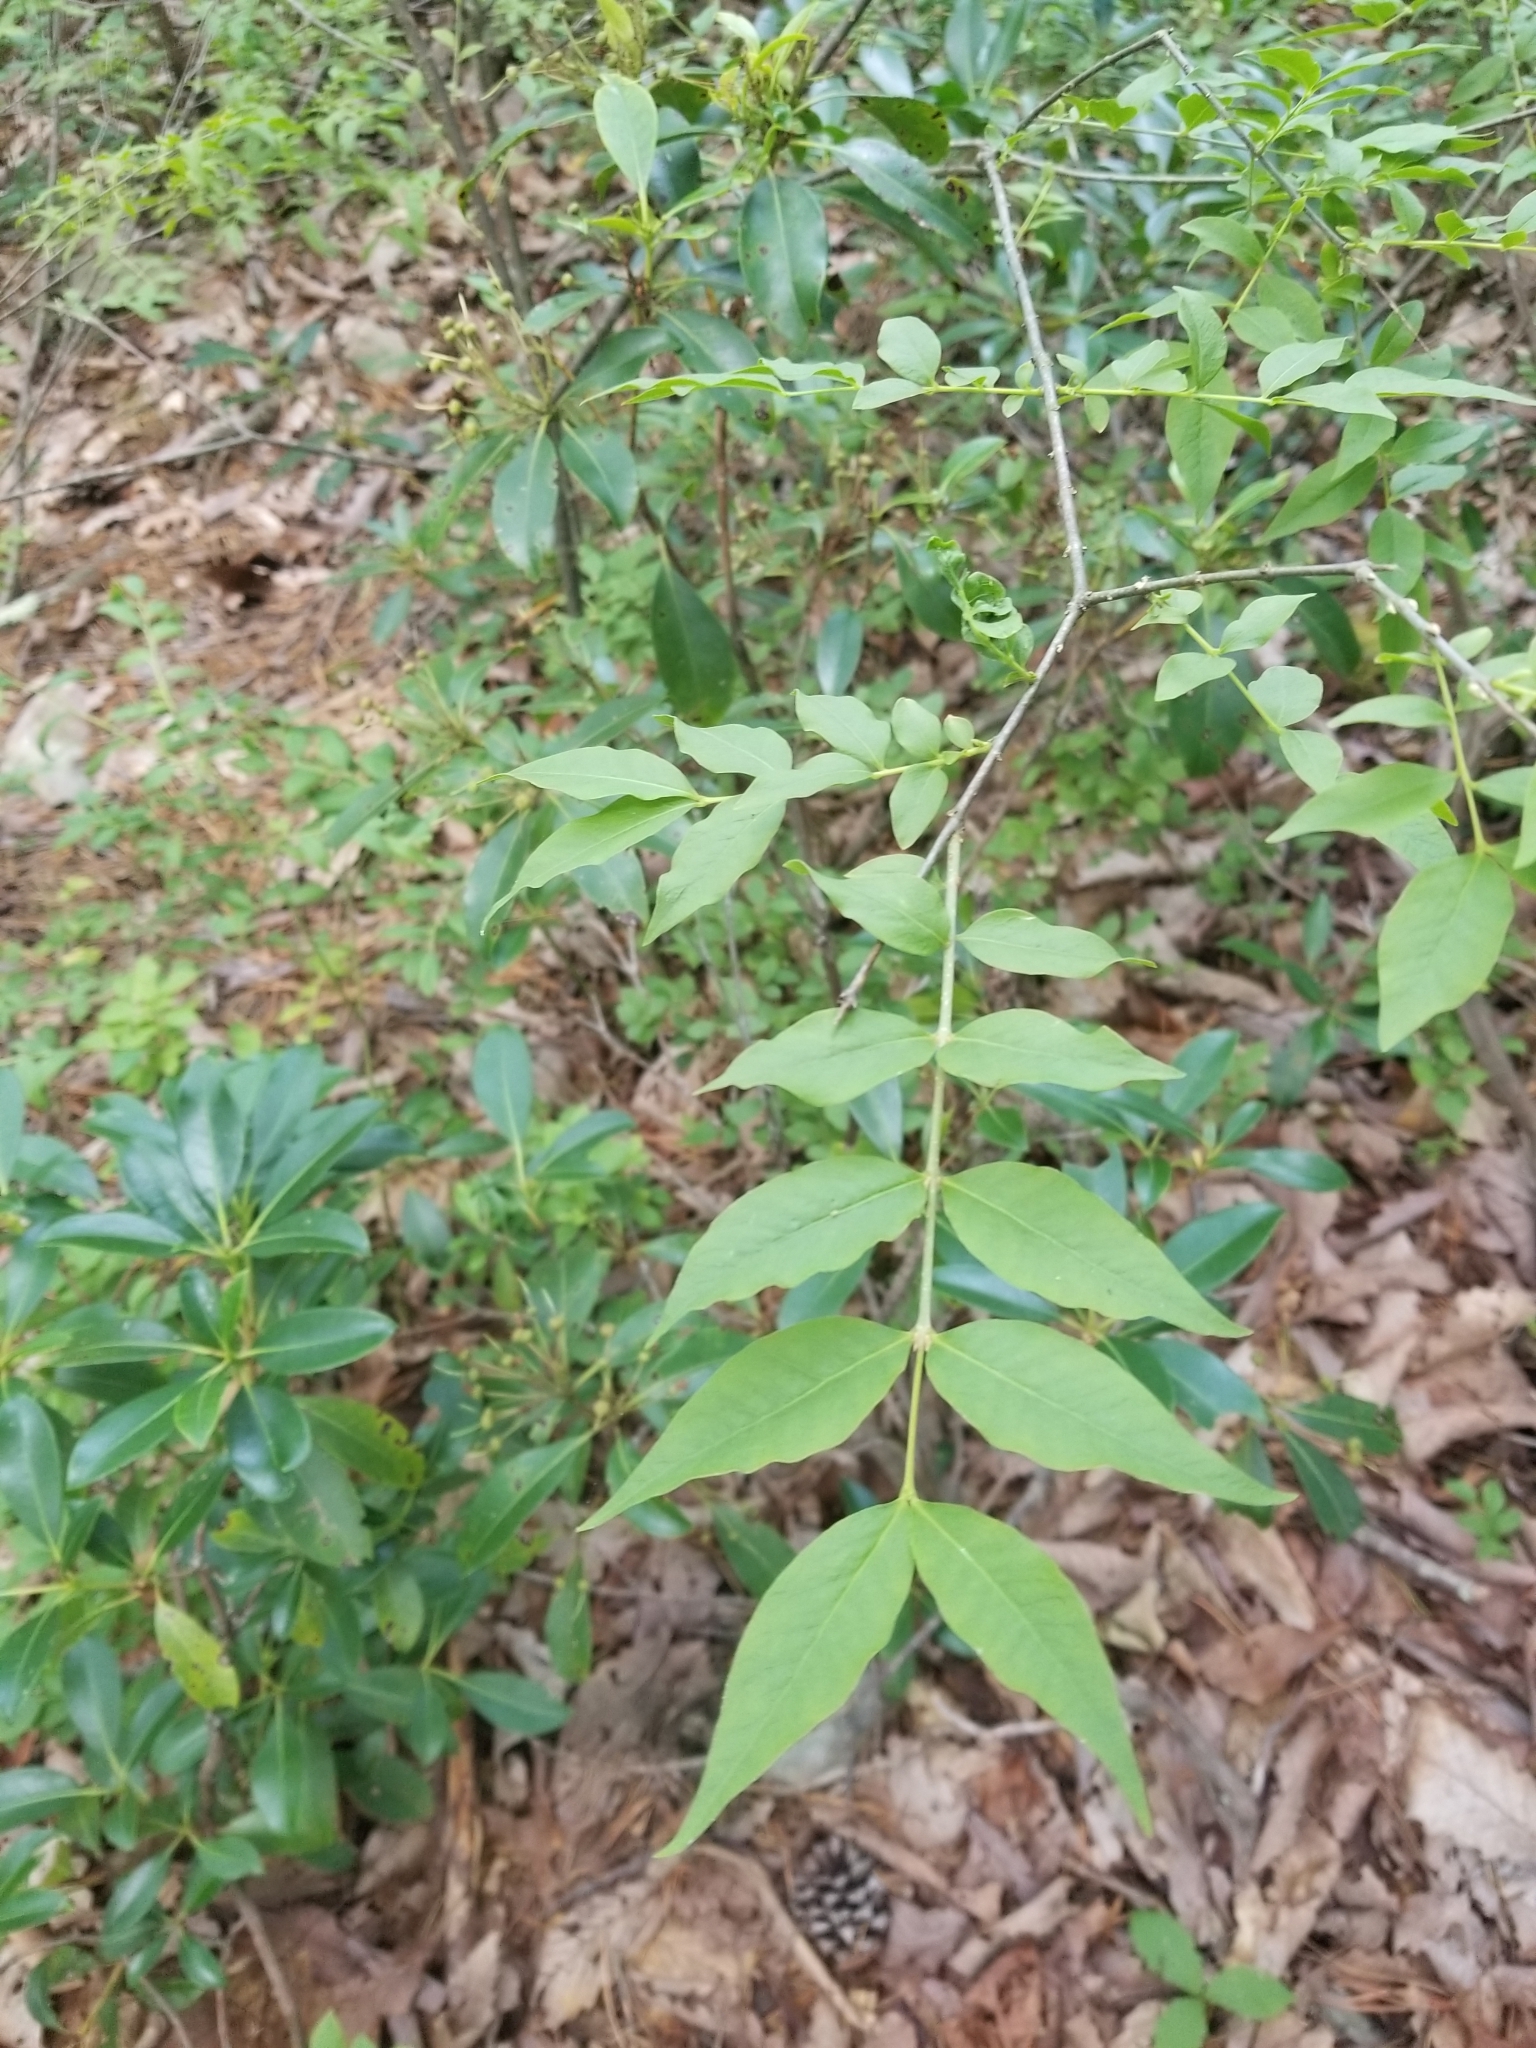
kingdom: Plantae
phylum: Tracheophyta
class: Magnoliopsida
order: Santalales
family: Thesiaceae
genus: Buckleya
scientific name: Buckleya distichophylla
